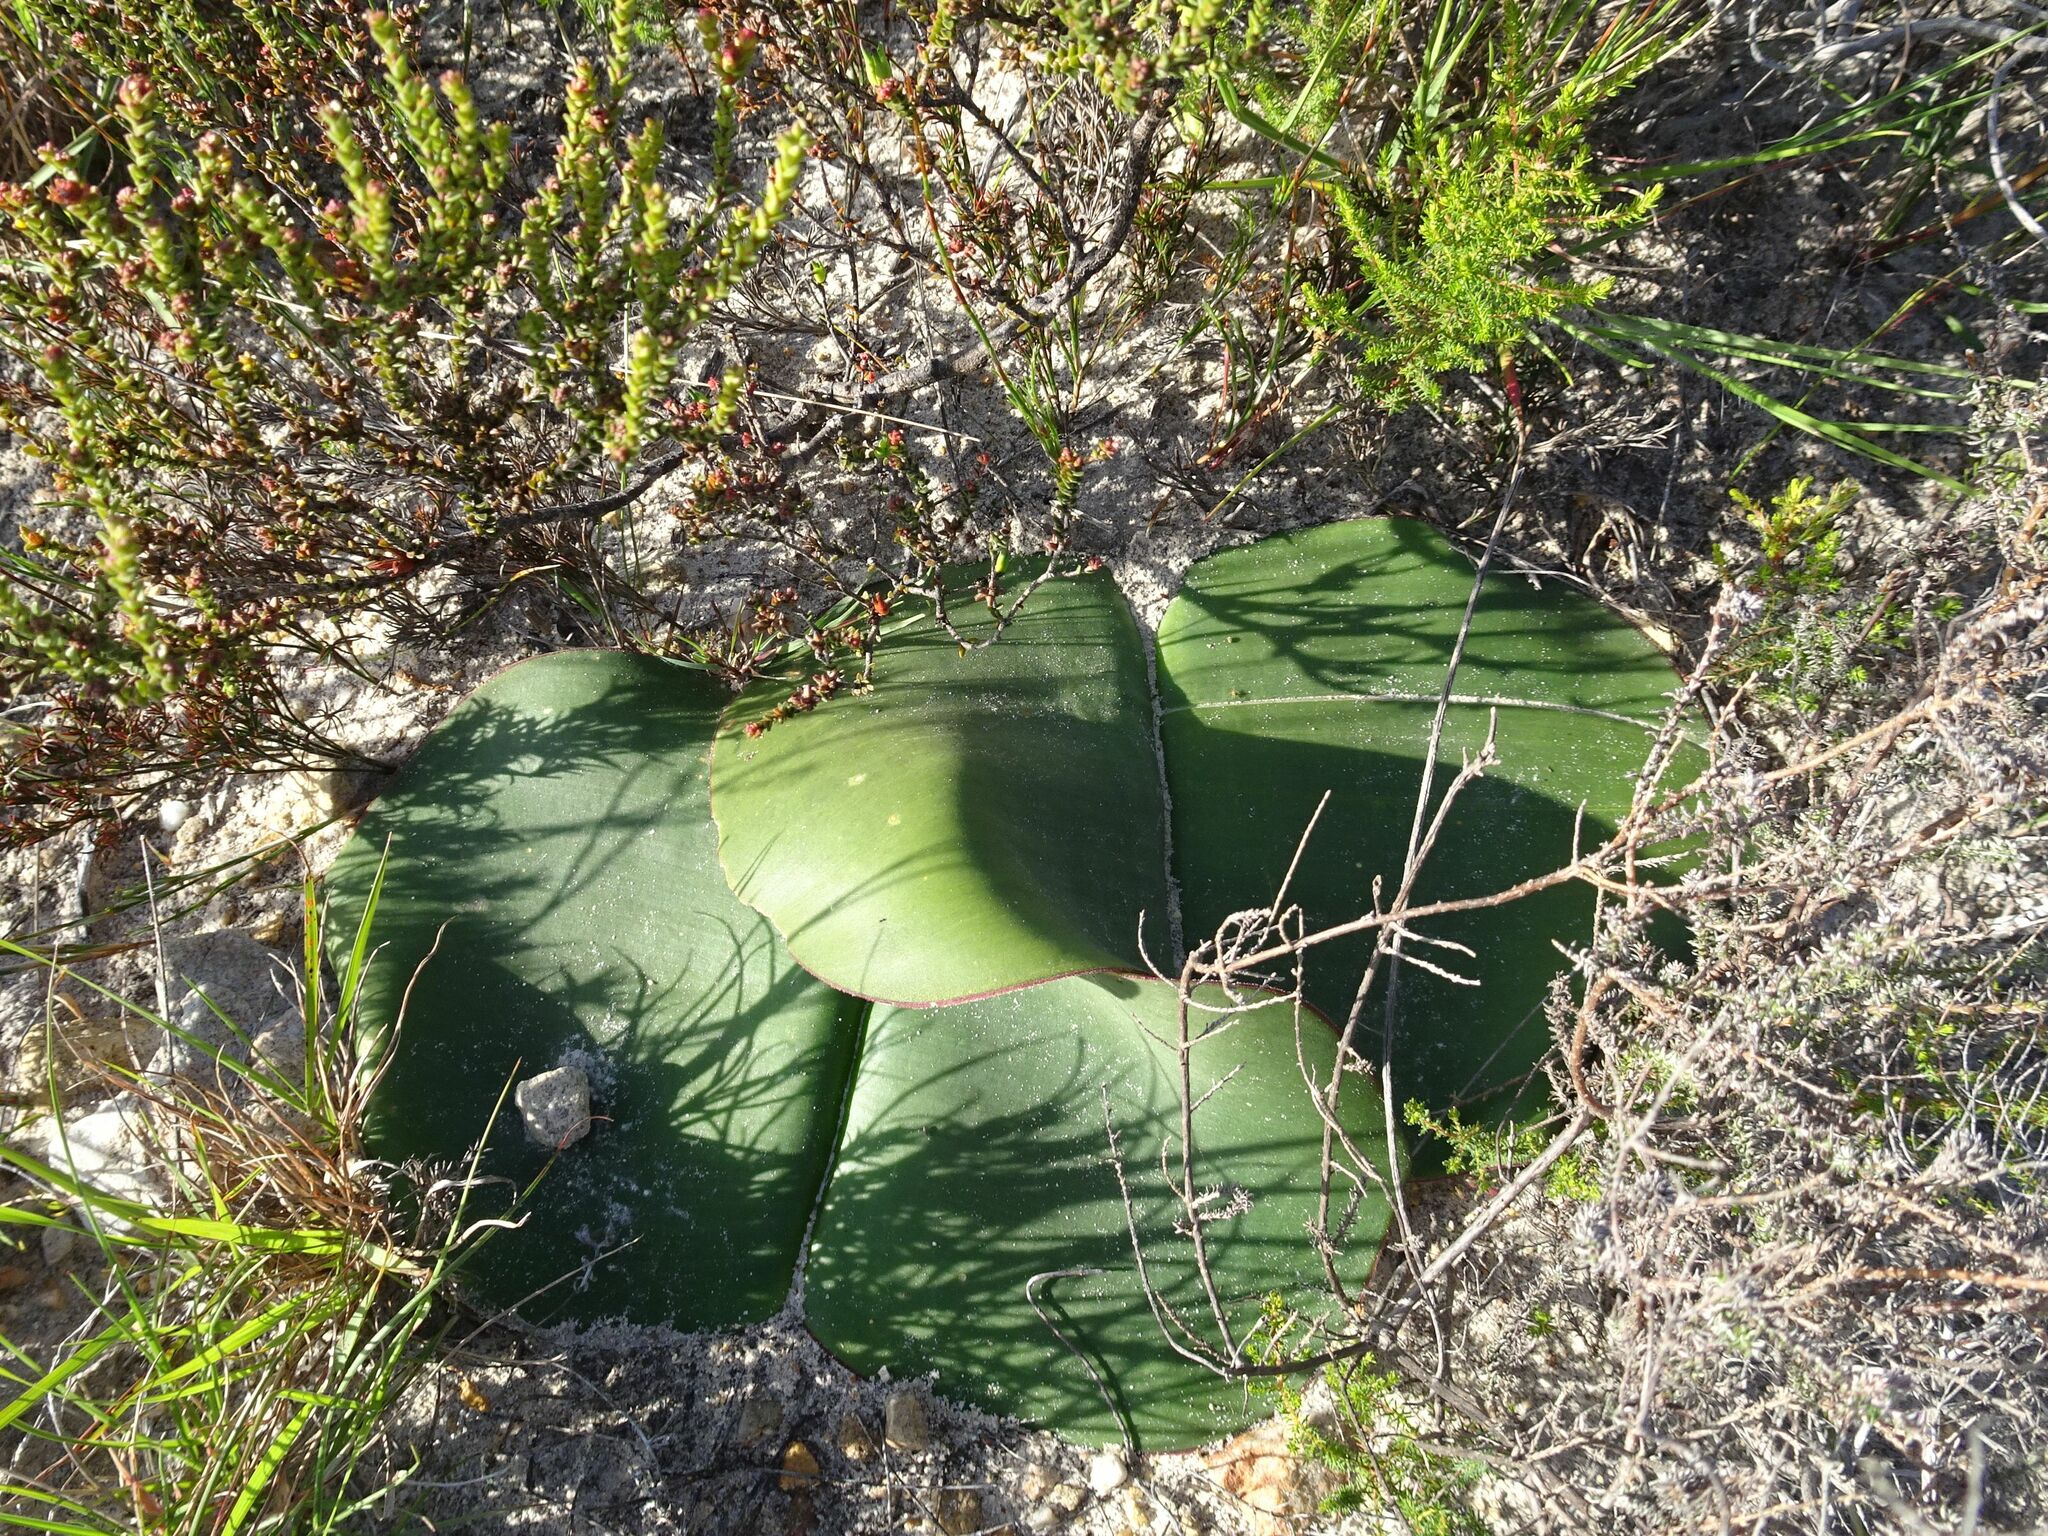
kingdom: Plantae
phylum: Tracheophyta
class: Liliopsida
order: Asparagales
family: Amaryllidaceae
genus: Haemanthus
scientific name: Haemanthus sanguineus
